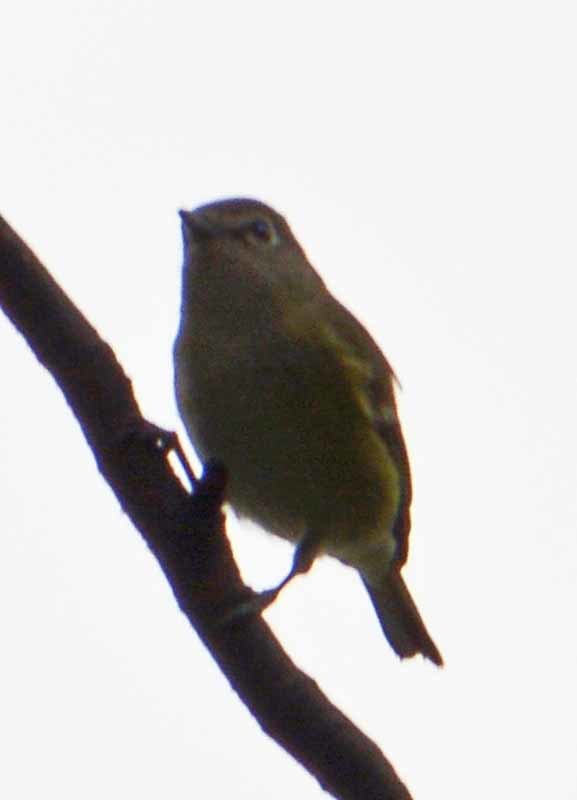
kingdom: Animalia
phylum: Chordata
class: Aves
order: Passeriformes
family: Vireonidae
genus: Vireo
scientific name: Vireo cassinii
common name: Cassin's vireo
